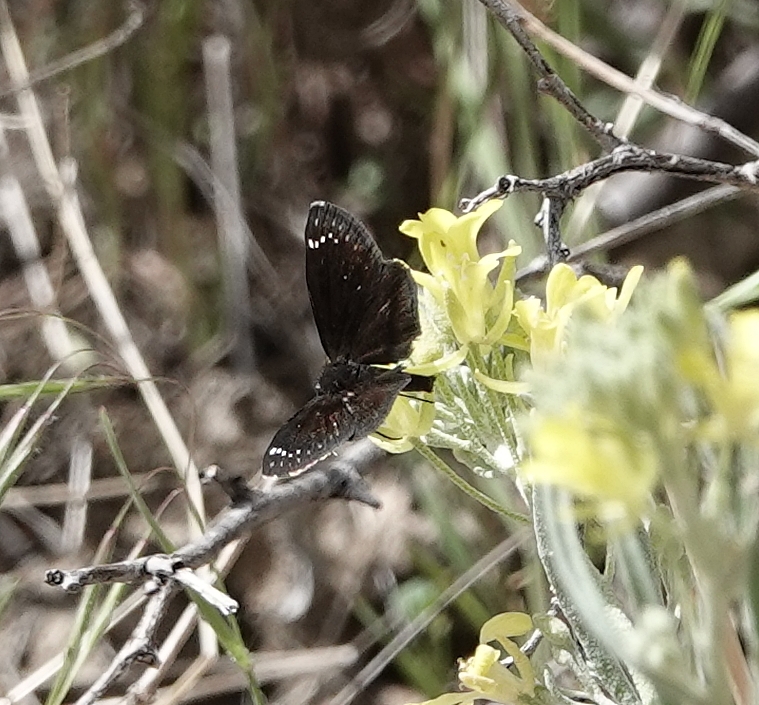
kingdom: Animalia
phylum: Arthropoda
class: Insecta
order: Lepidoptera
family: Hesperiidae
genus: Pholisora
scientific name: Pholisora catullus
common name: Common sootywing
